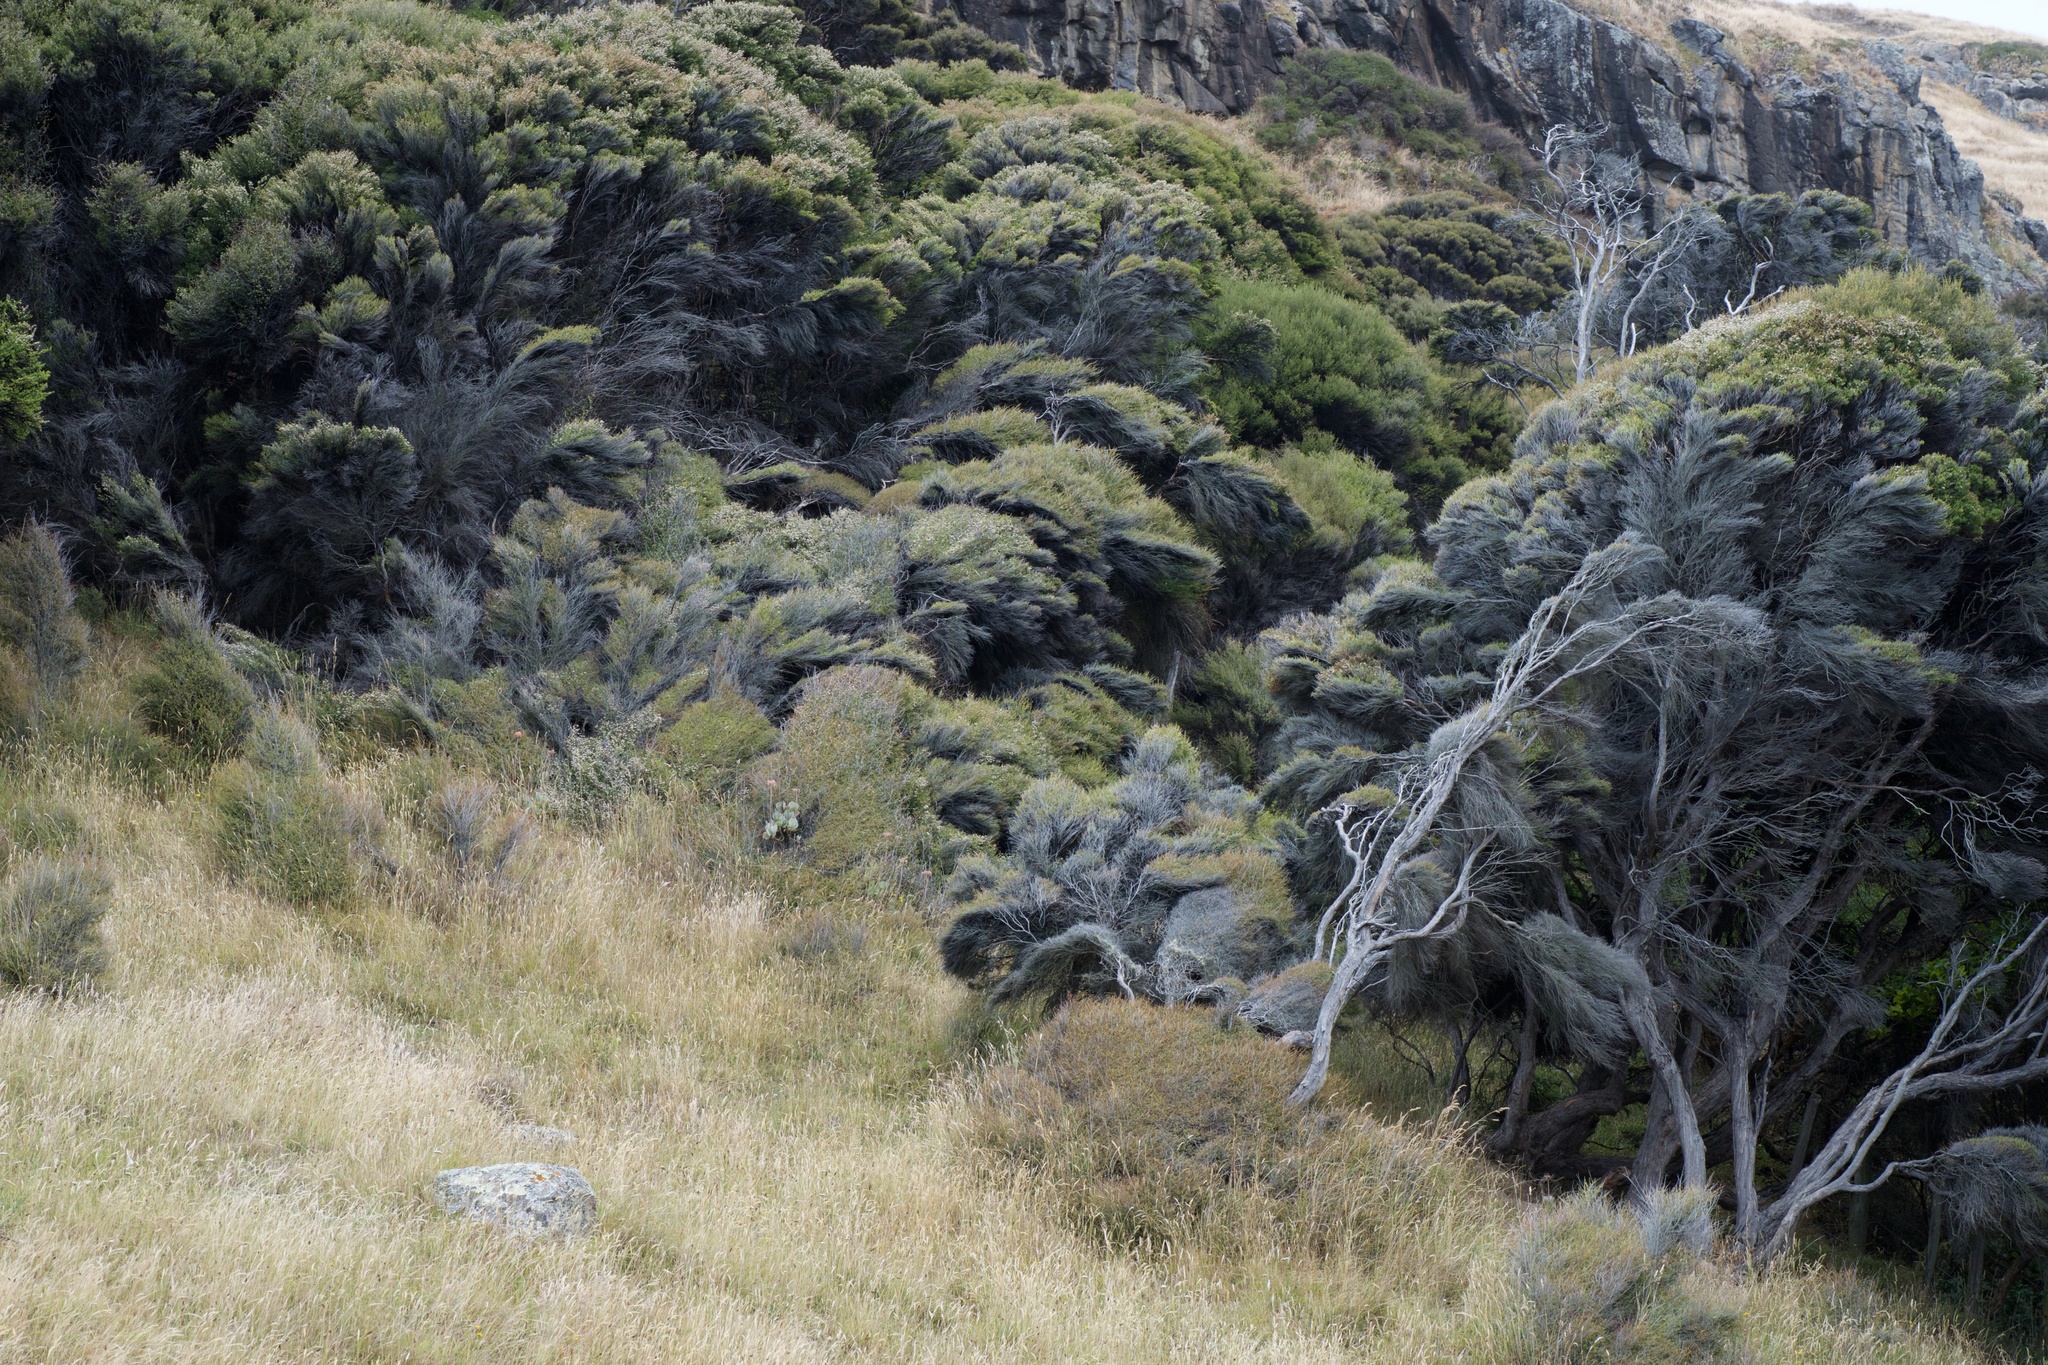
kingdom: Plantae
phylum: Tracheophyta
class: Magnoliopsida
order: Myrtales
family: Myrtaceae
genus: Kunzea
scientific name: Kunzea robusta
